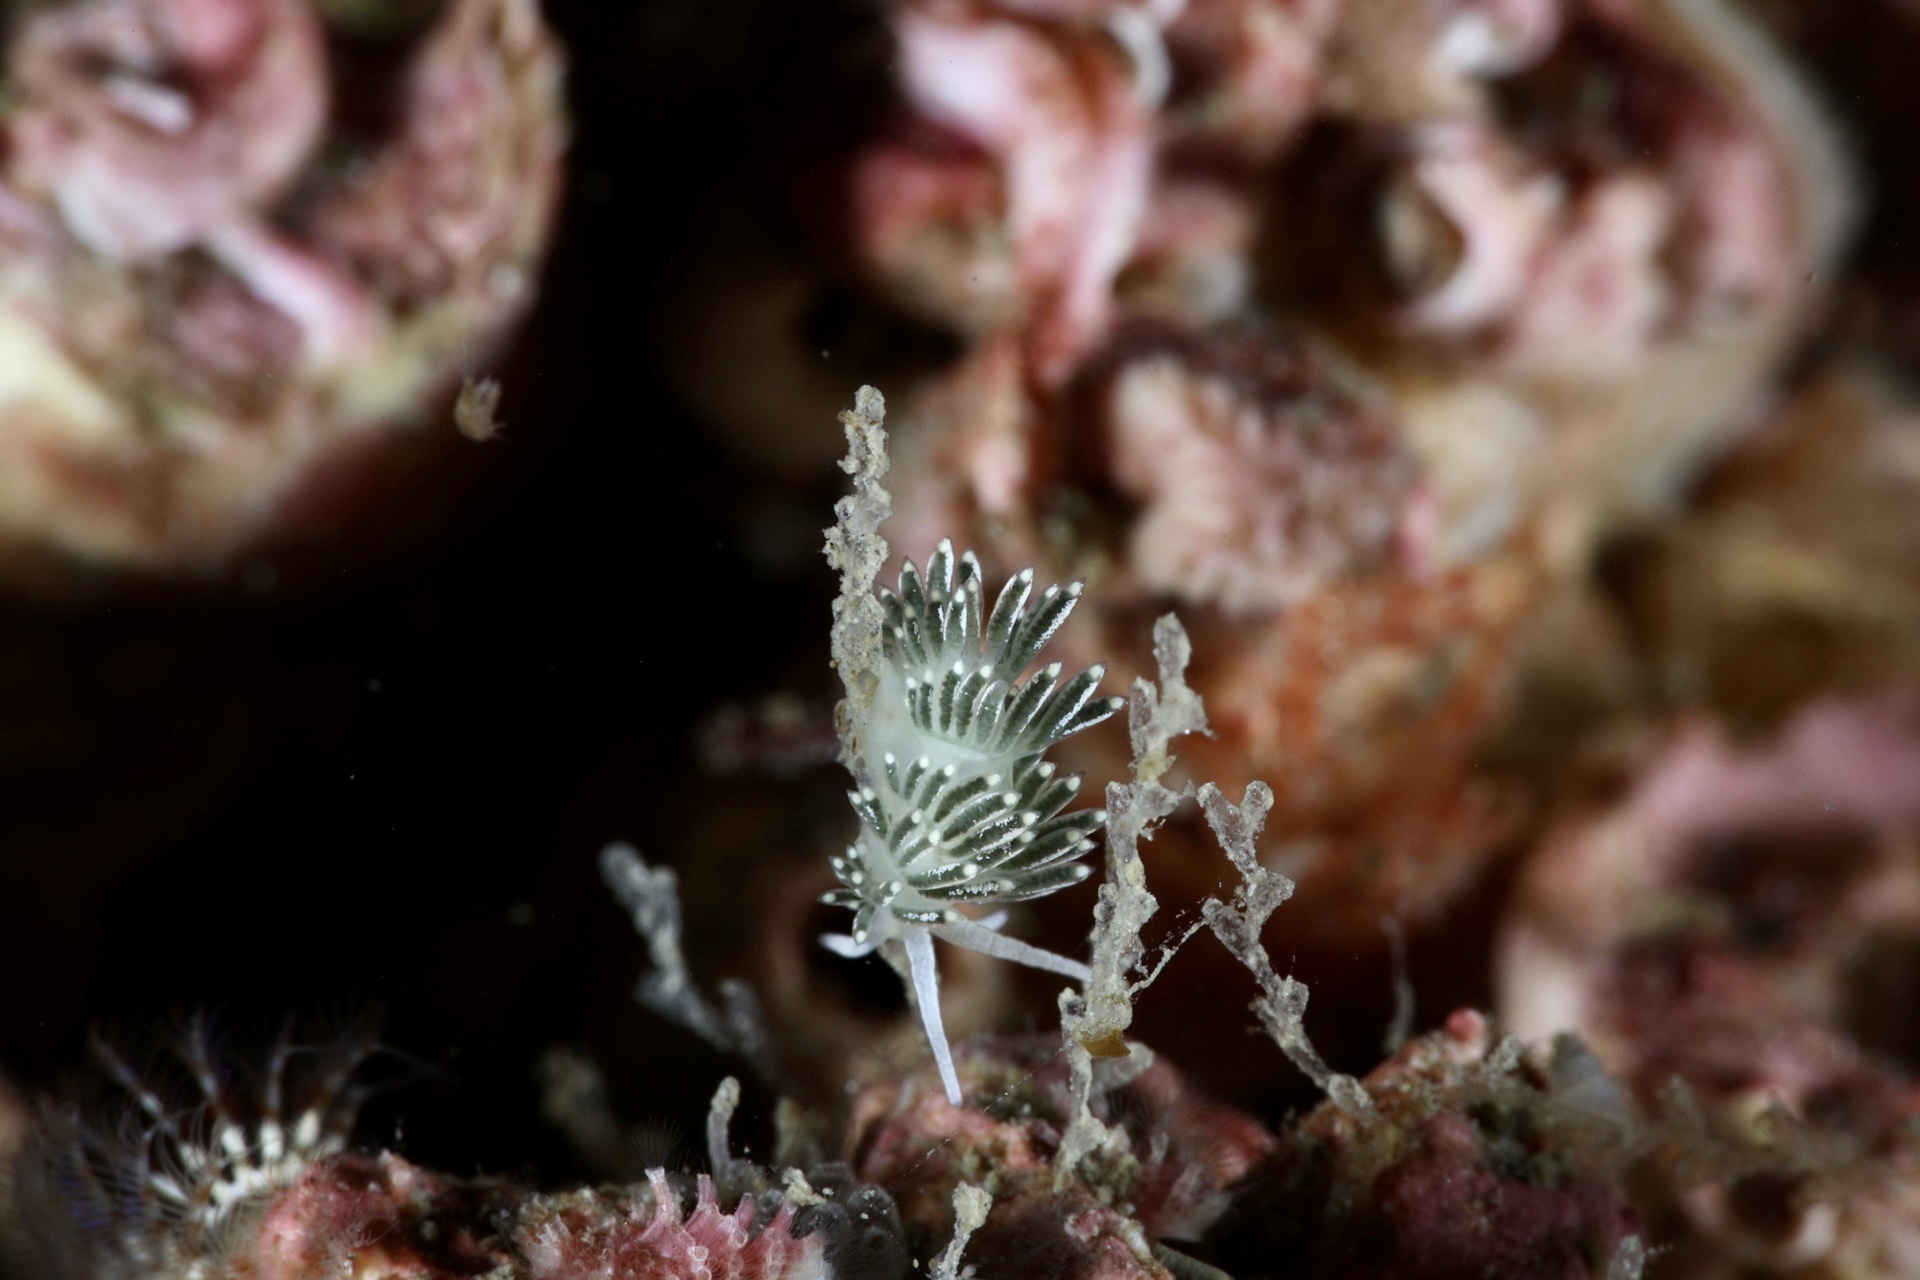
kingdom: Animalia
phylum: Mollusca
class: Gastropoda
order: Nudibranchia
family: Trinchesiidae
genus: Diaphoreolis
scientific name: Diaphoreolis viridis
